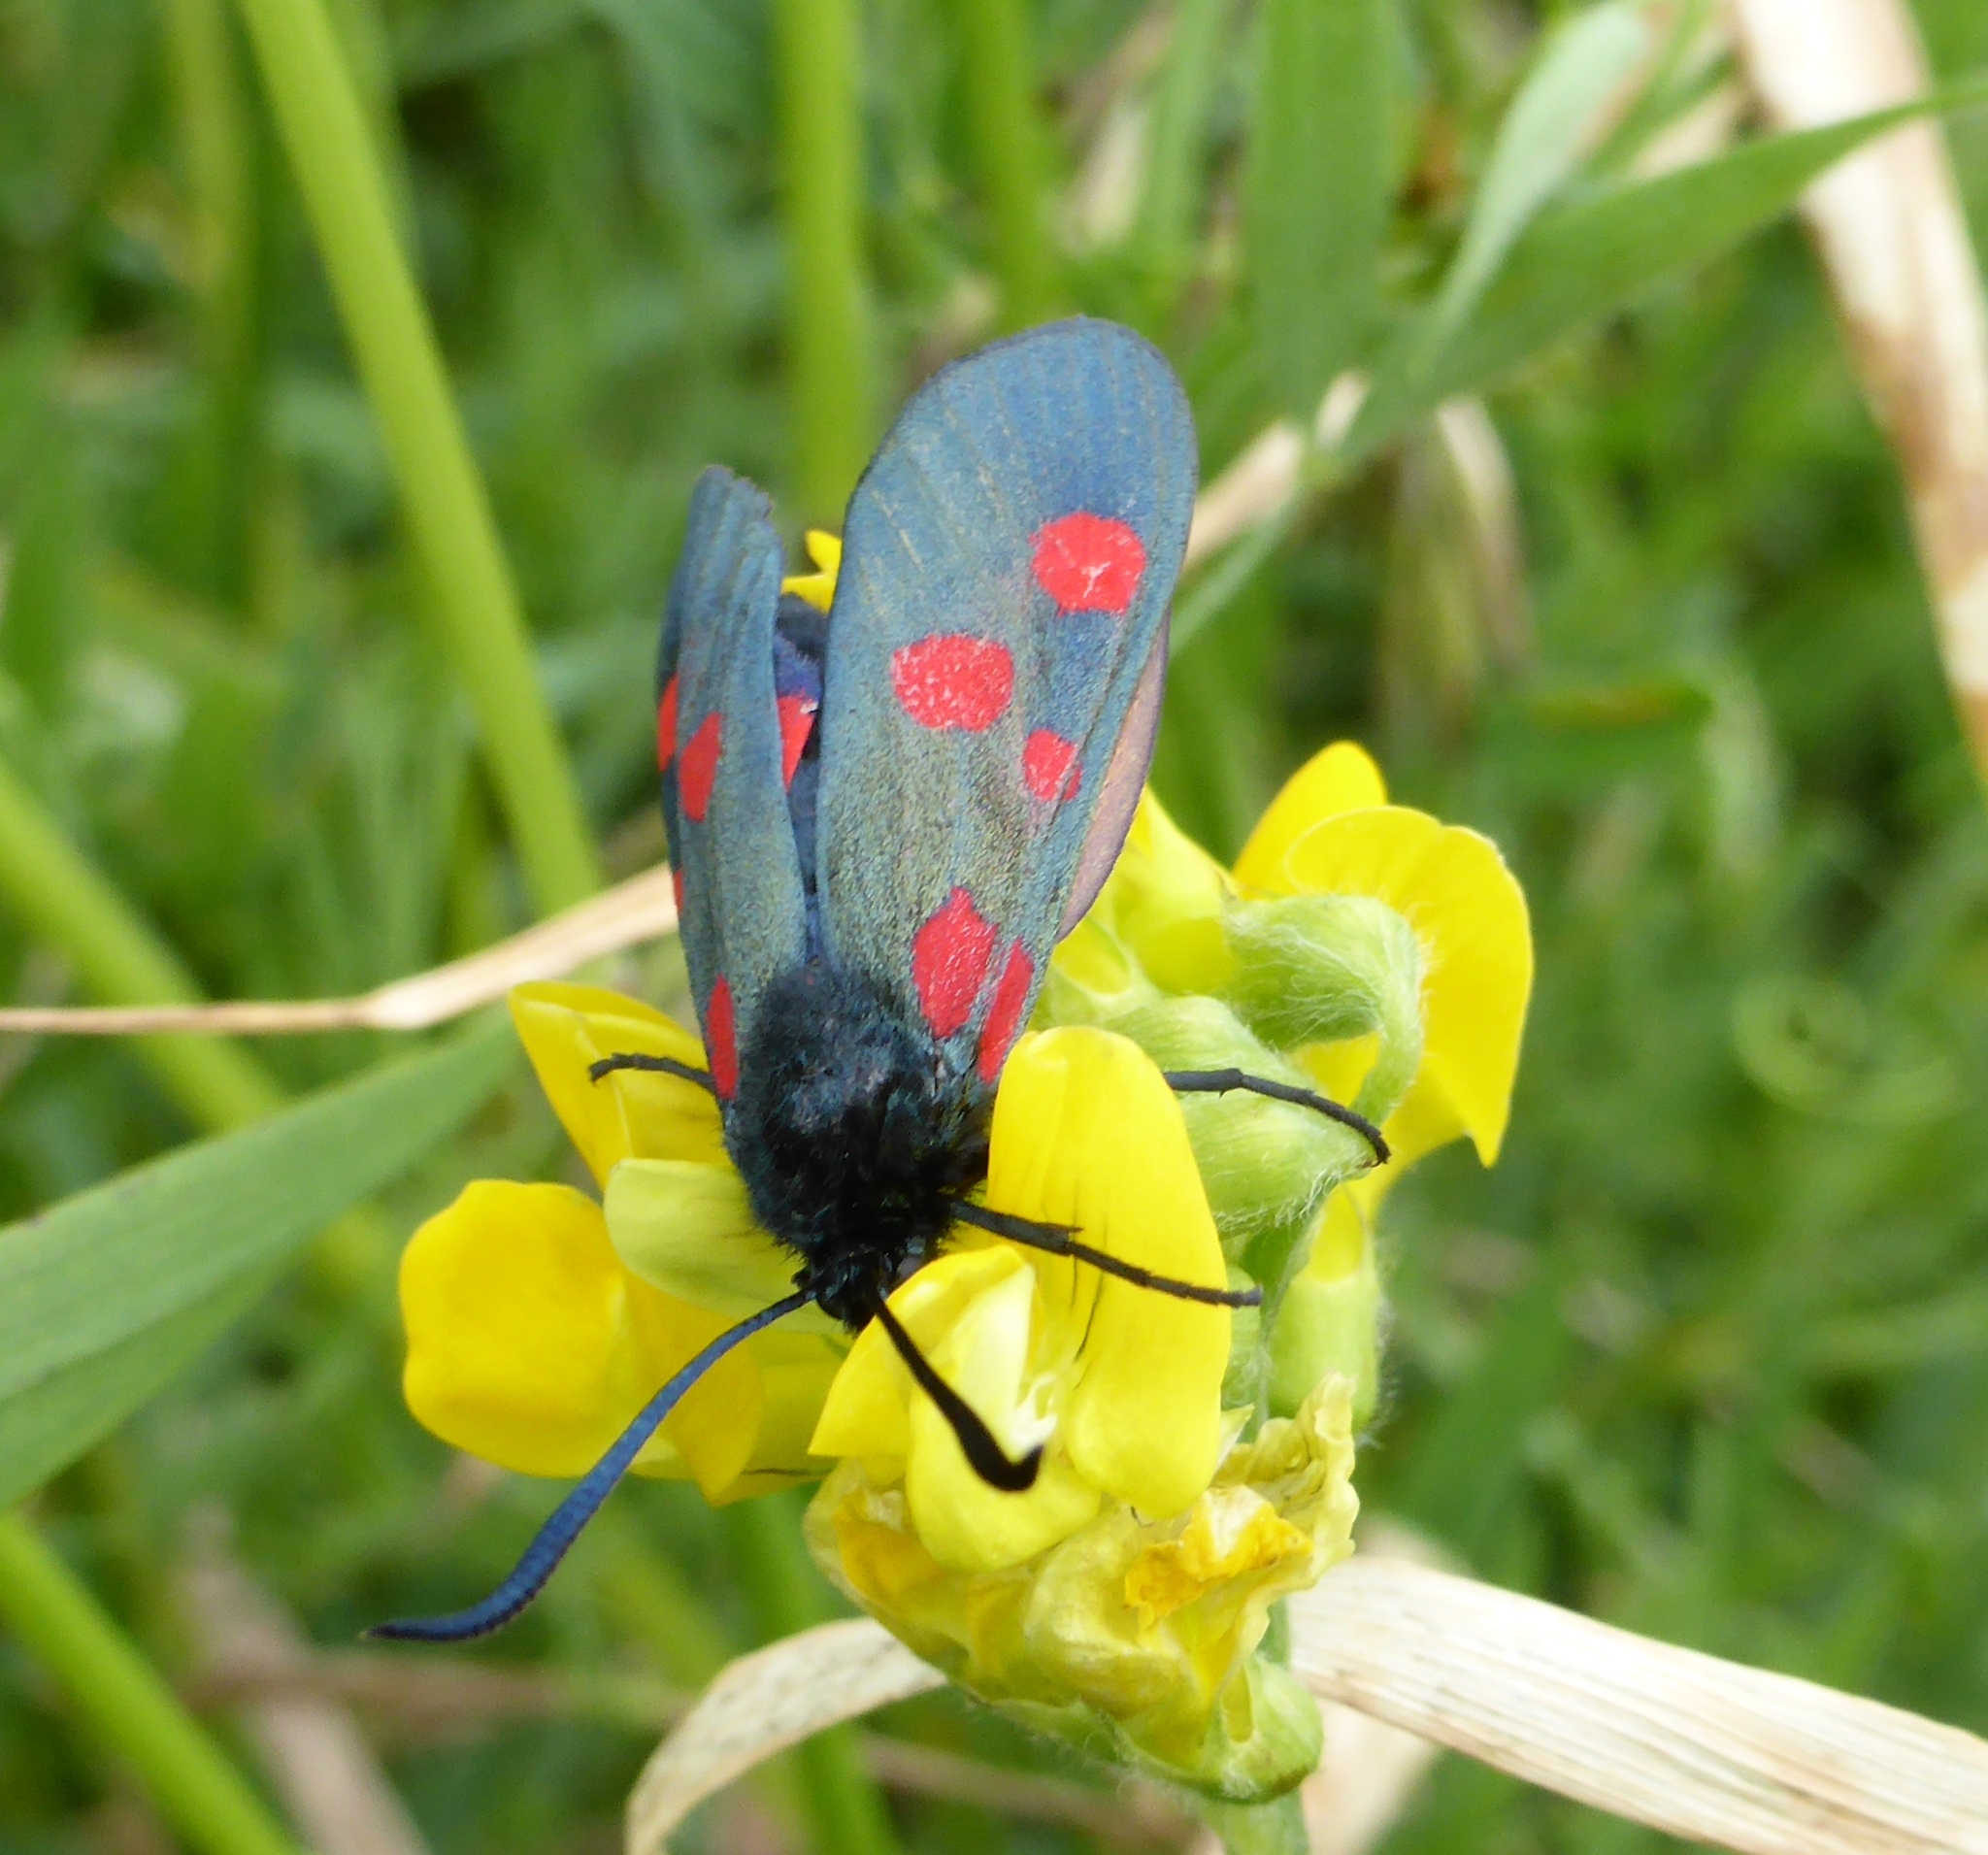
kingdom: Animalia
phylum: Arthropoda
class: Insecta
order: Lepidoptera
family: Zygaenidae
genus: Zygaena
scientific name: Zygaena
